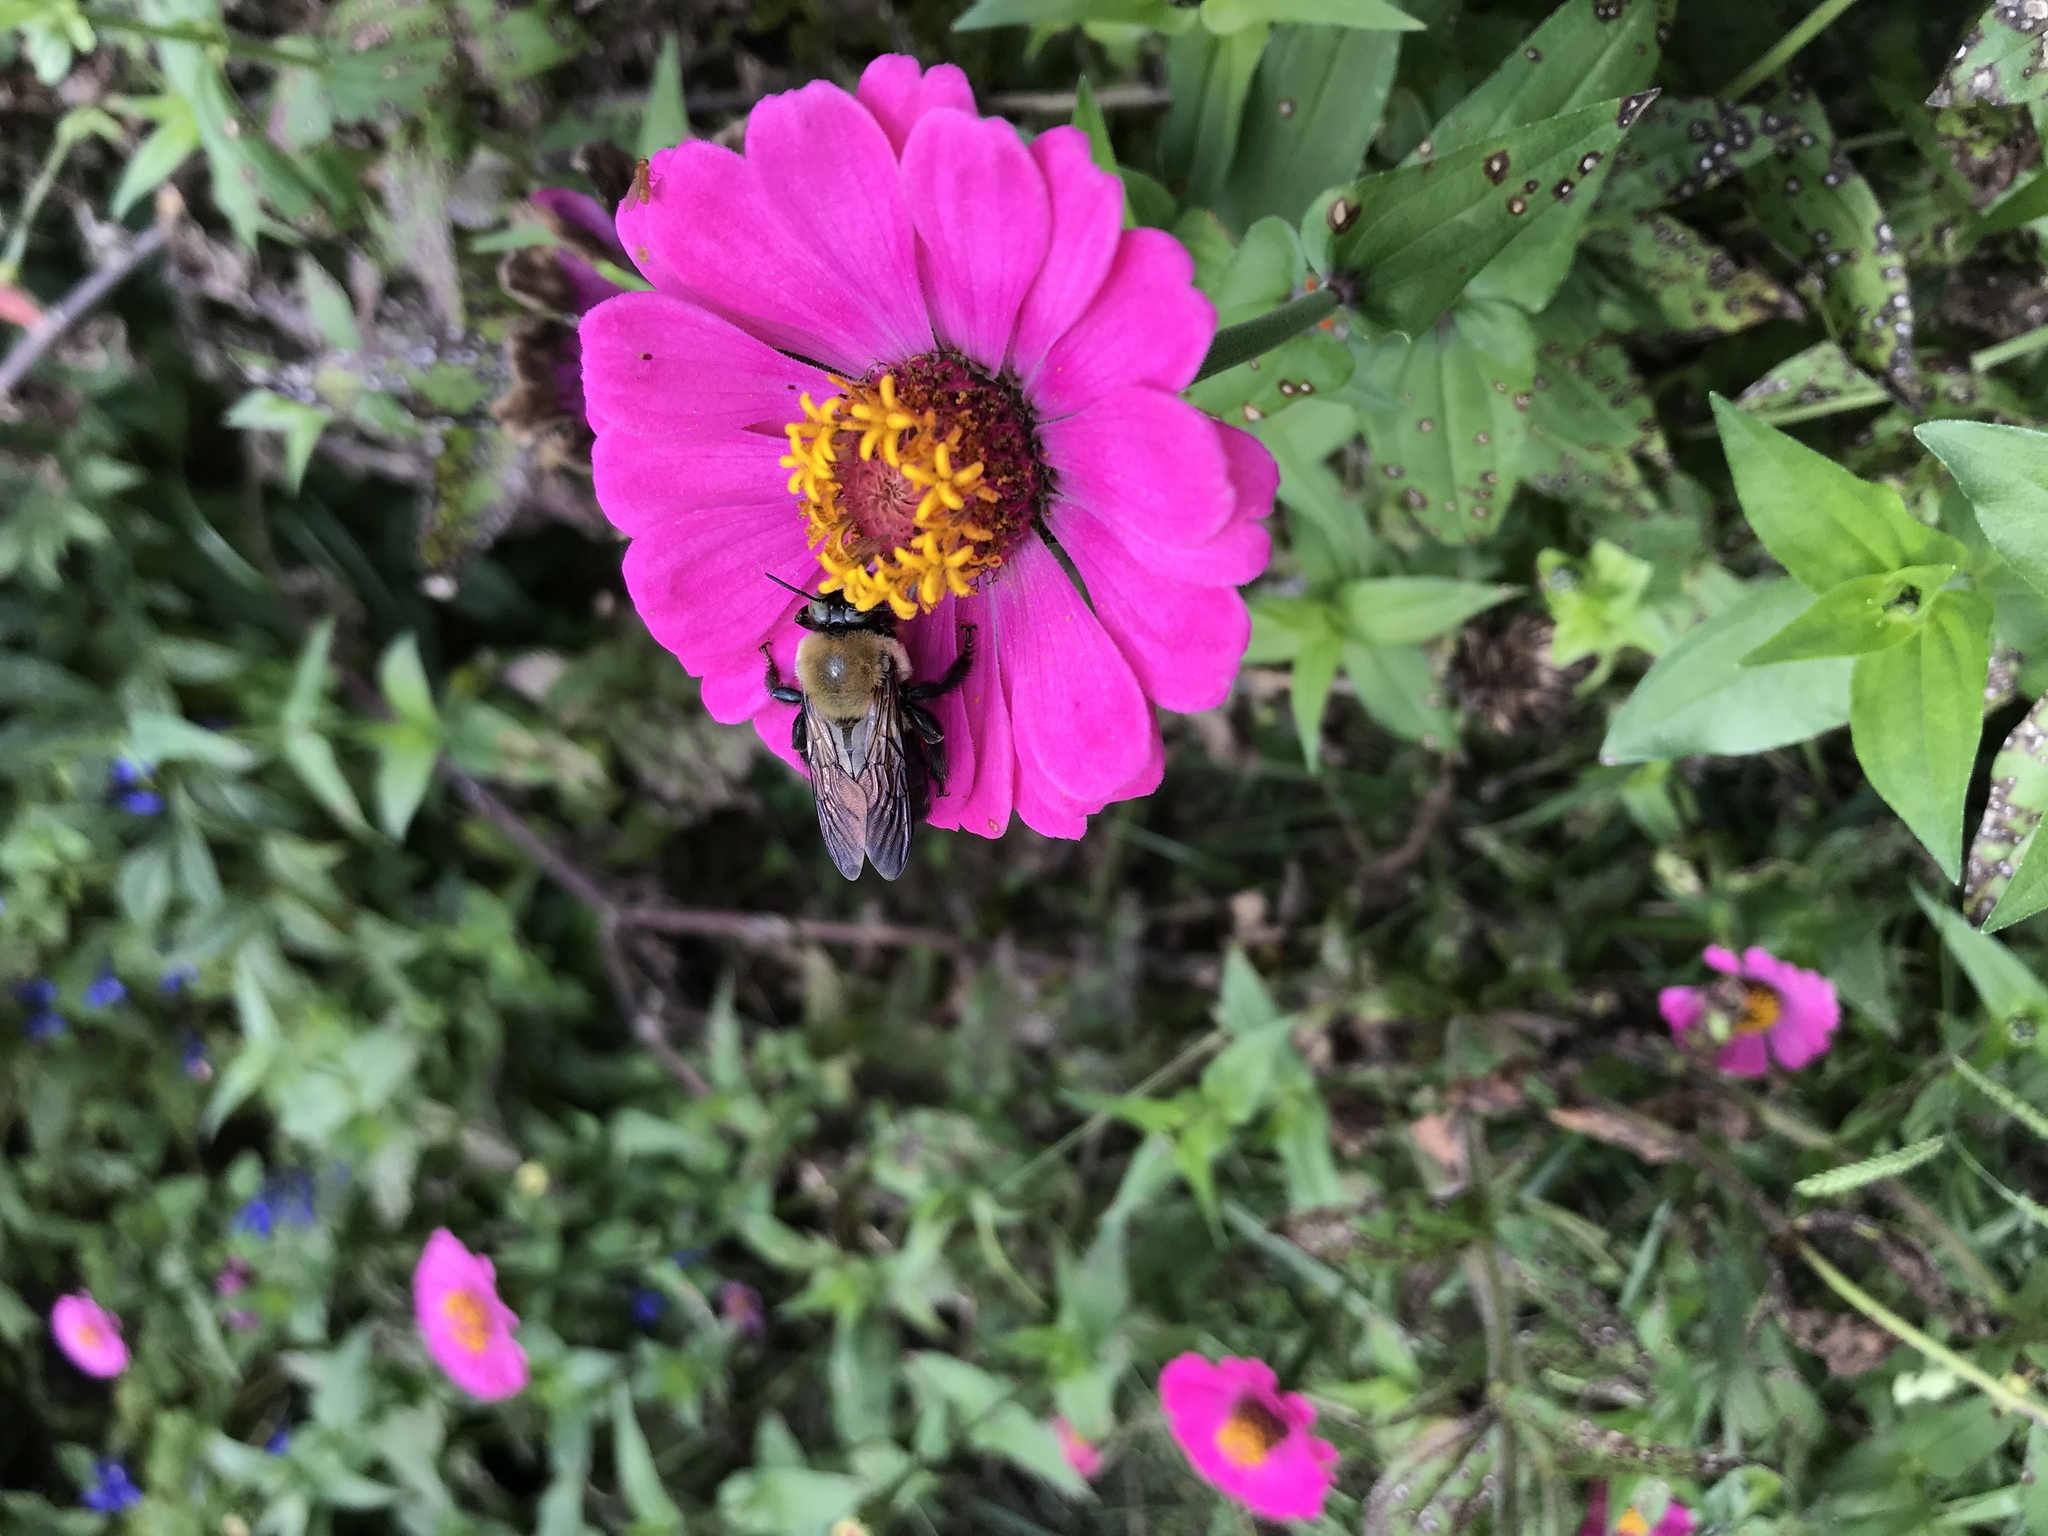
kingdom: Animalia
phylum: Arthropoda
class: Insecta
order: Hymenoptera
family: Apidae
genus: Xylocopa
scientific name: Xylocopa virginica
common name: Carpenter bee
